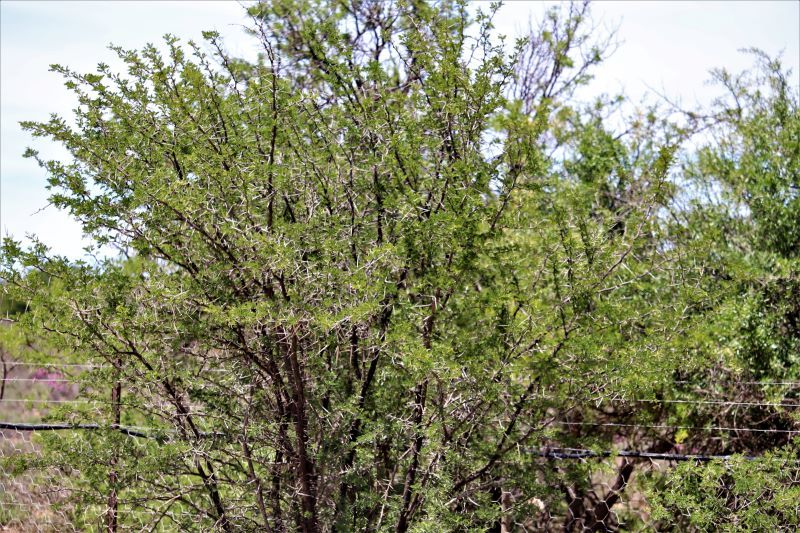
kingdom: Plantae
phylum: Tracheophyta
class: Magnoliopsida
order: Fabales
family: Fabaceae
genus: Vachellia
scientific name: Vachellia karroo
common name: Sweet thorn
